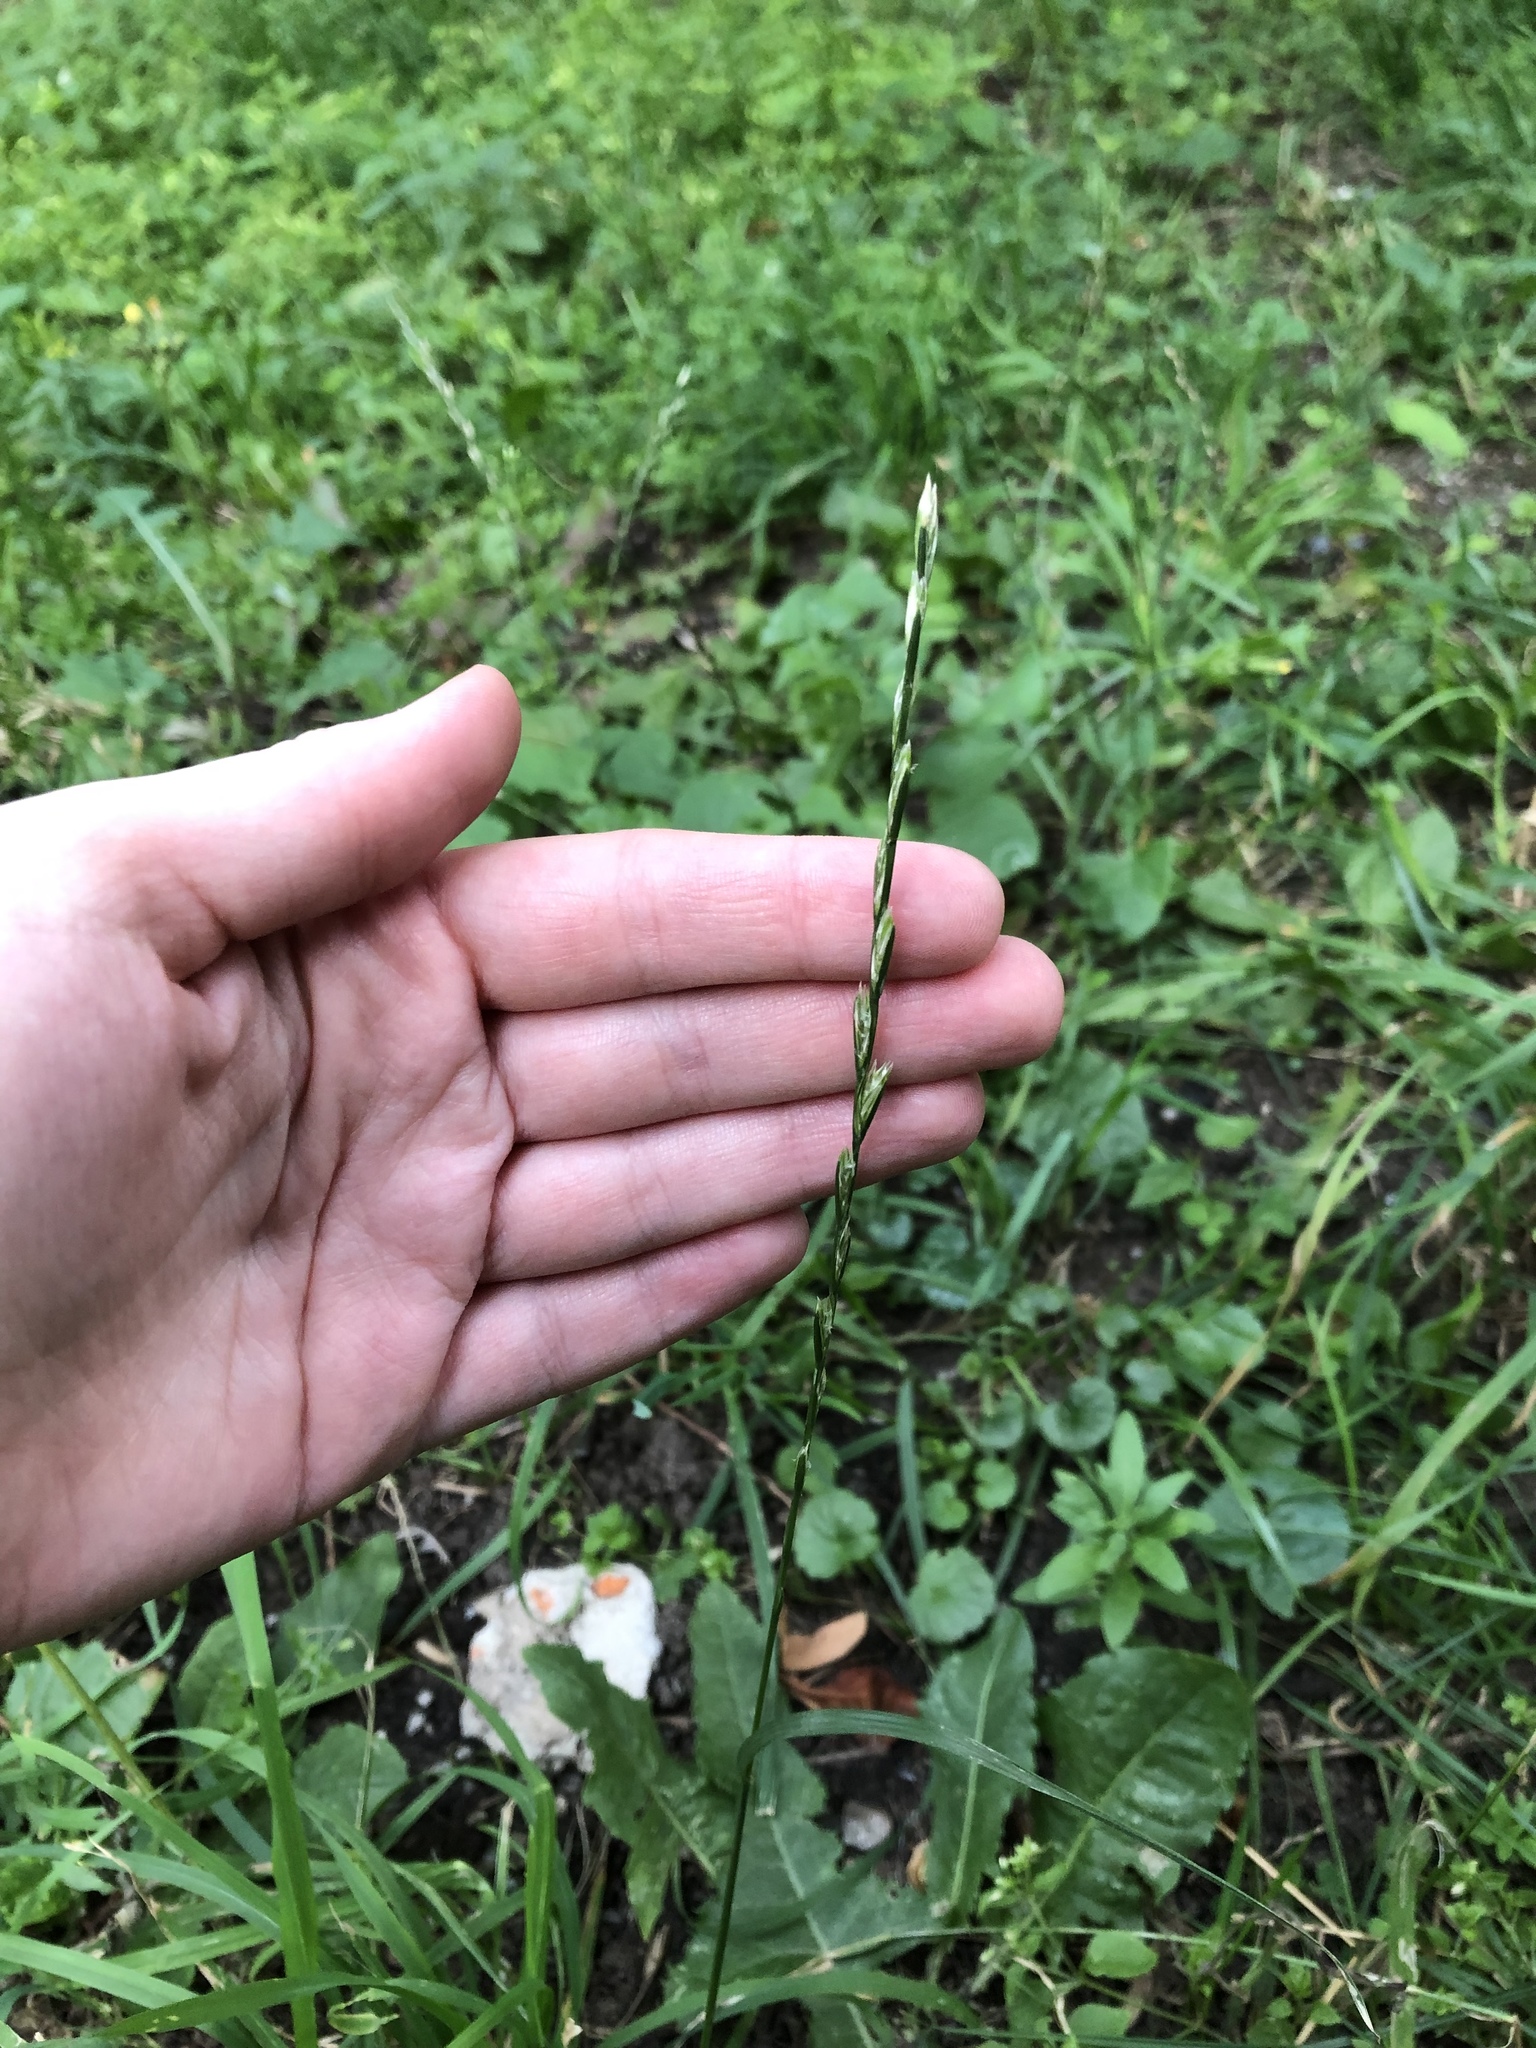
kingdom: Plantae
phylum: Tracheophyta
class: Liliopsida
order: Poales
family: Poaceae
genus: Lolium
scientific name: Lolium perenne
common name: Perennial ryegrass
